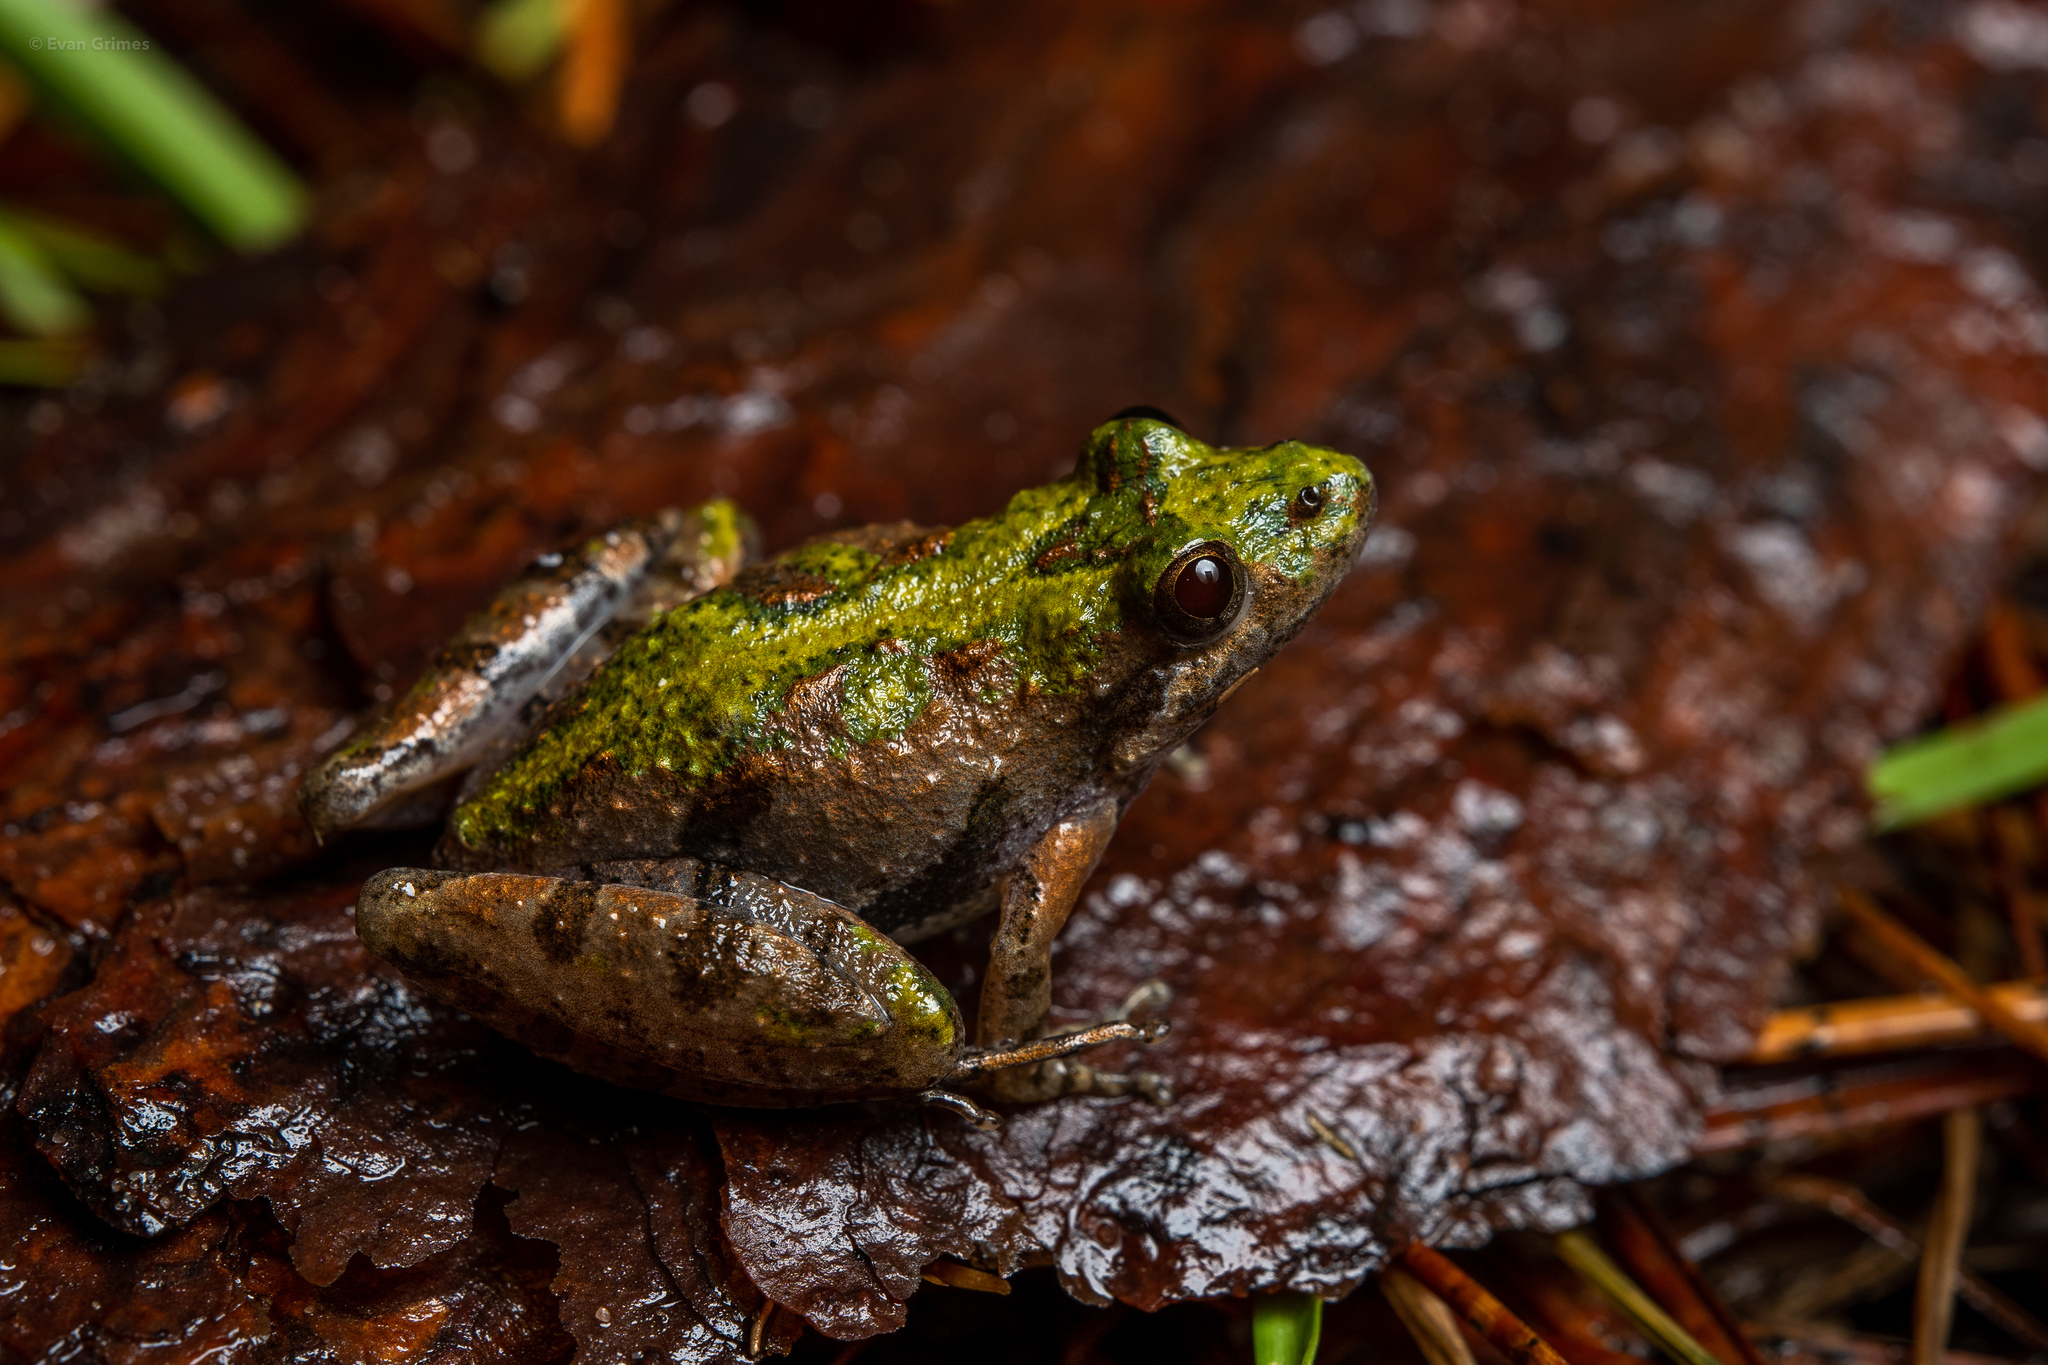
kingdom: Animalia
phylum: Chordata
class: Amphibia
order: Anura
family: Hylidae
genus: Acris
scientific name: Acris gryllus
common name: Southern cricket frog
